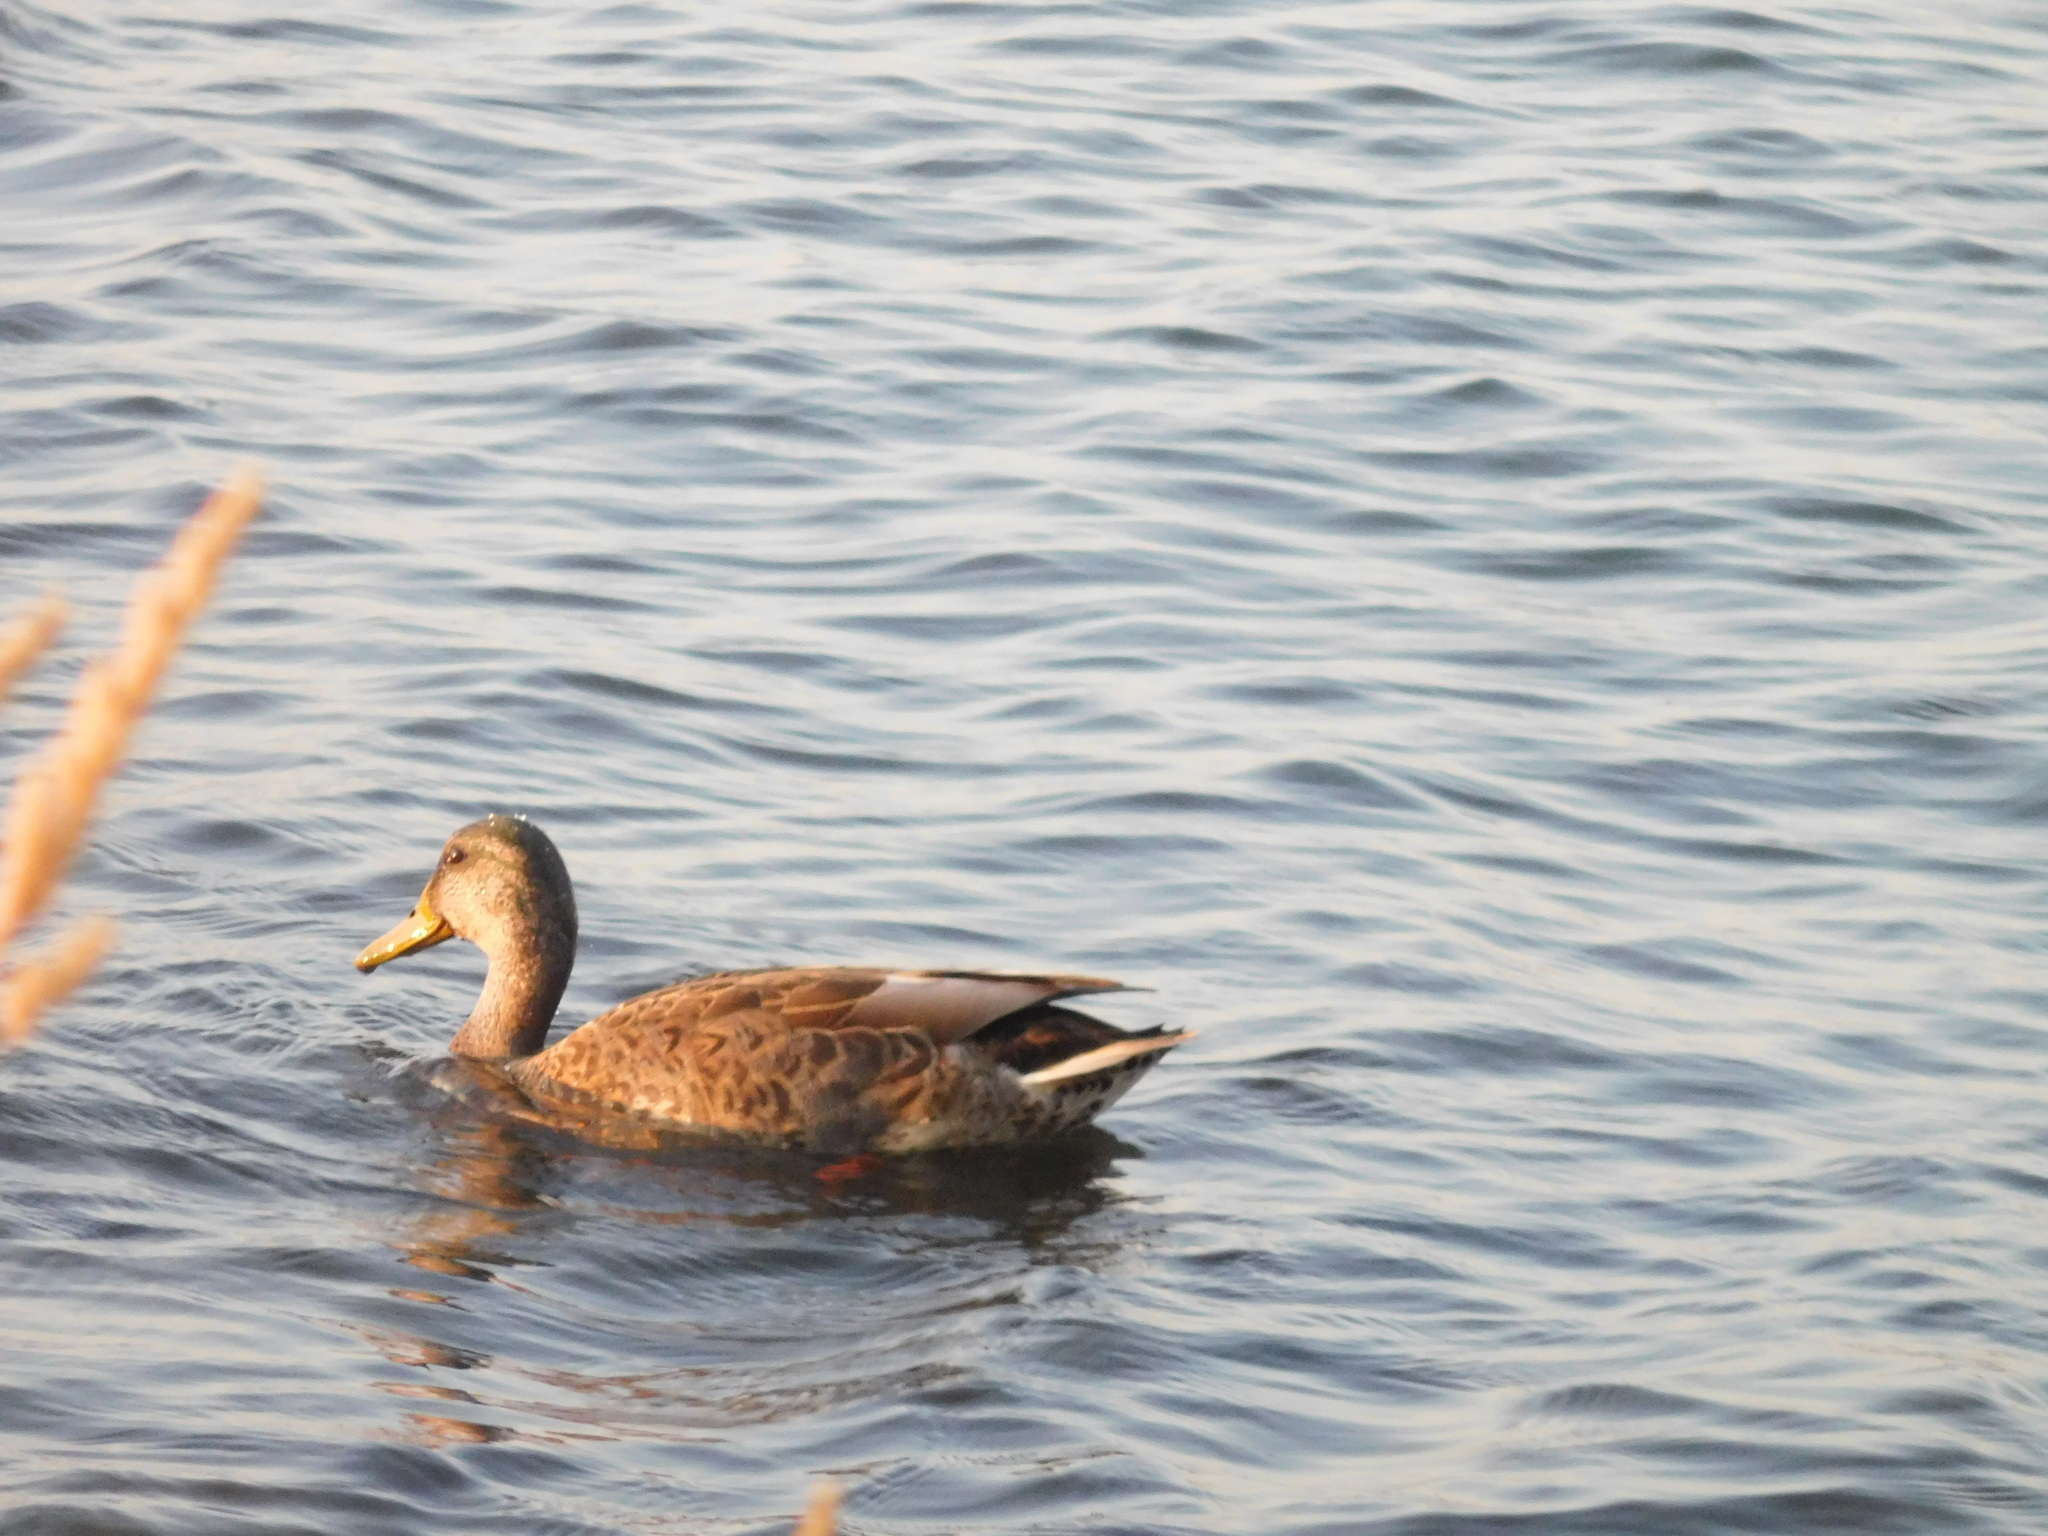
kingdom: Animalia
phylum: Chordata
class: Aves
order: Anseriformes
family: Anatidae
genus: Anas
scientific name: Anas platyrhynchos
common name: Mallard
